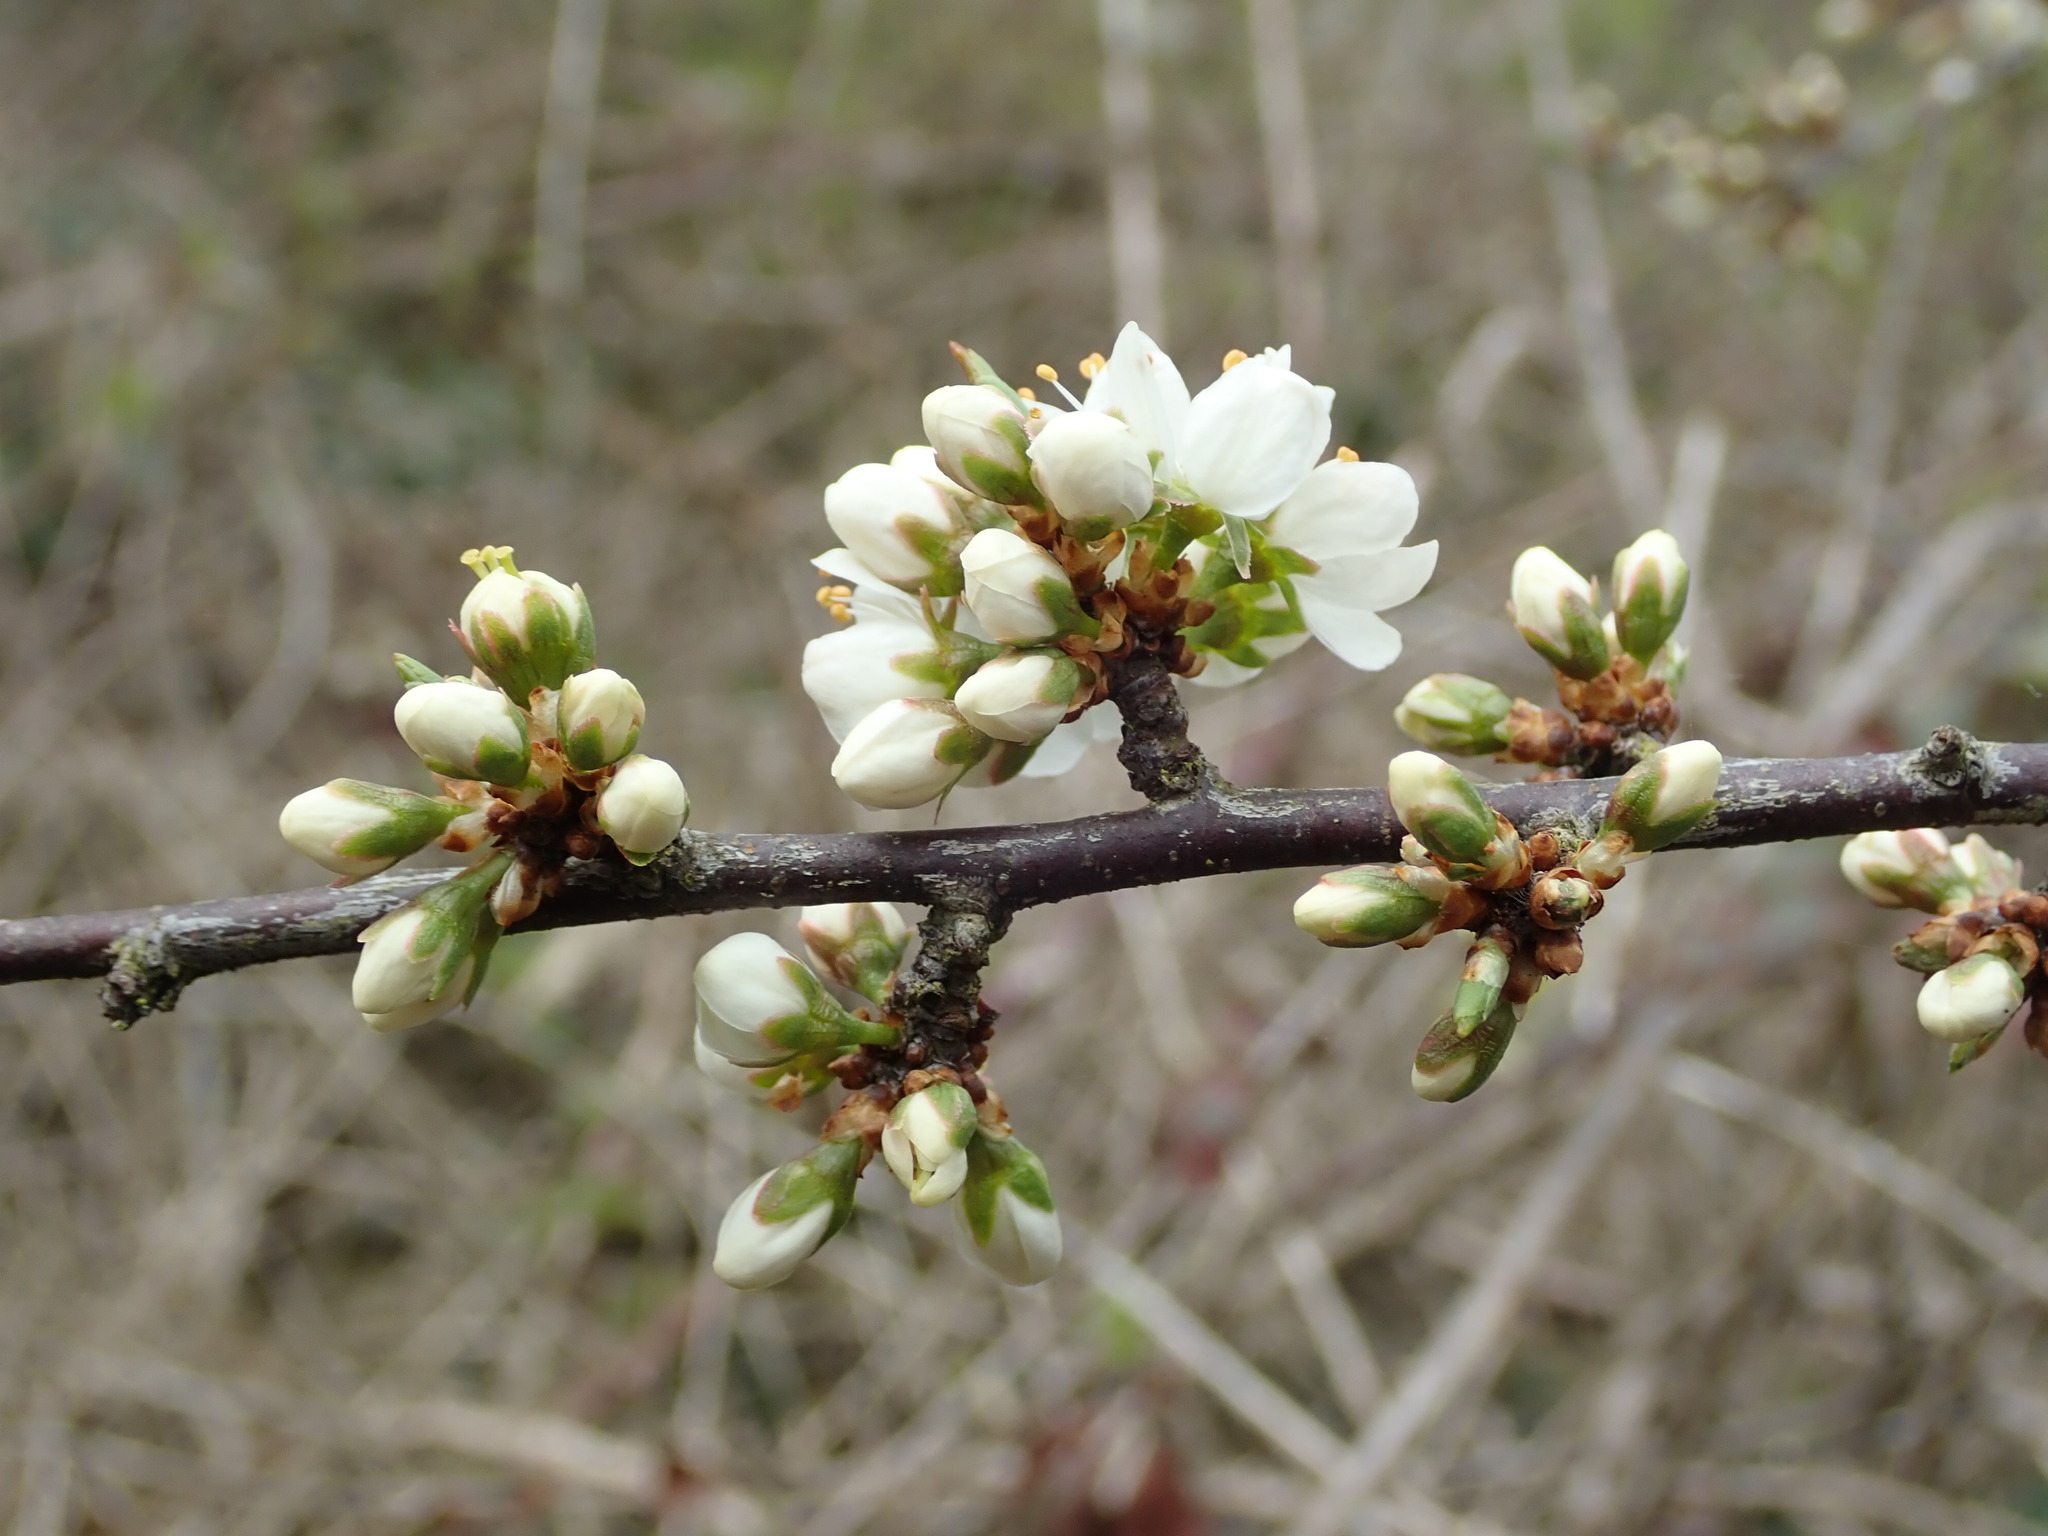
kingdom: Plantae
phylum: Tracheophyta
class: Magnoliopsida
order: Rosales
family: Rosaceae
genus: Prunus
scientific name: Prunus spinosa
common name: Blackthorn
